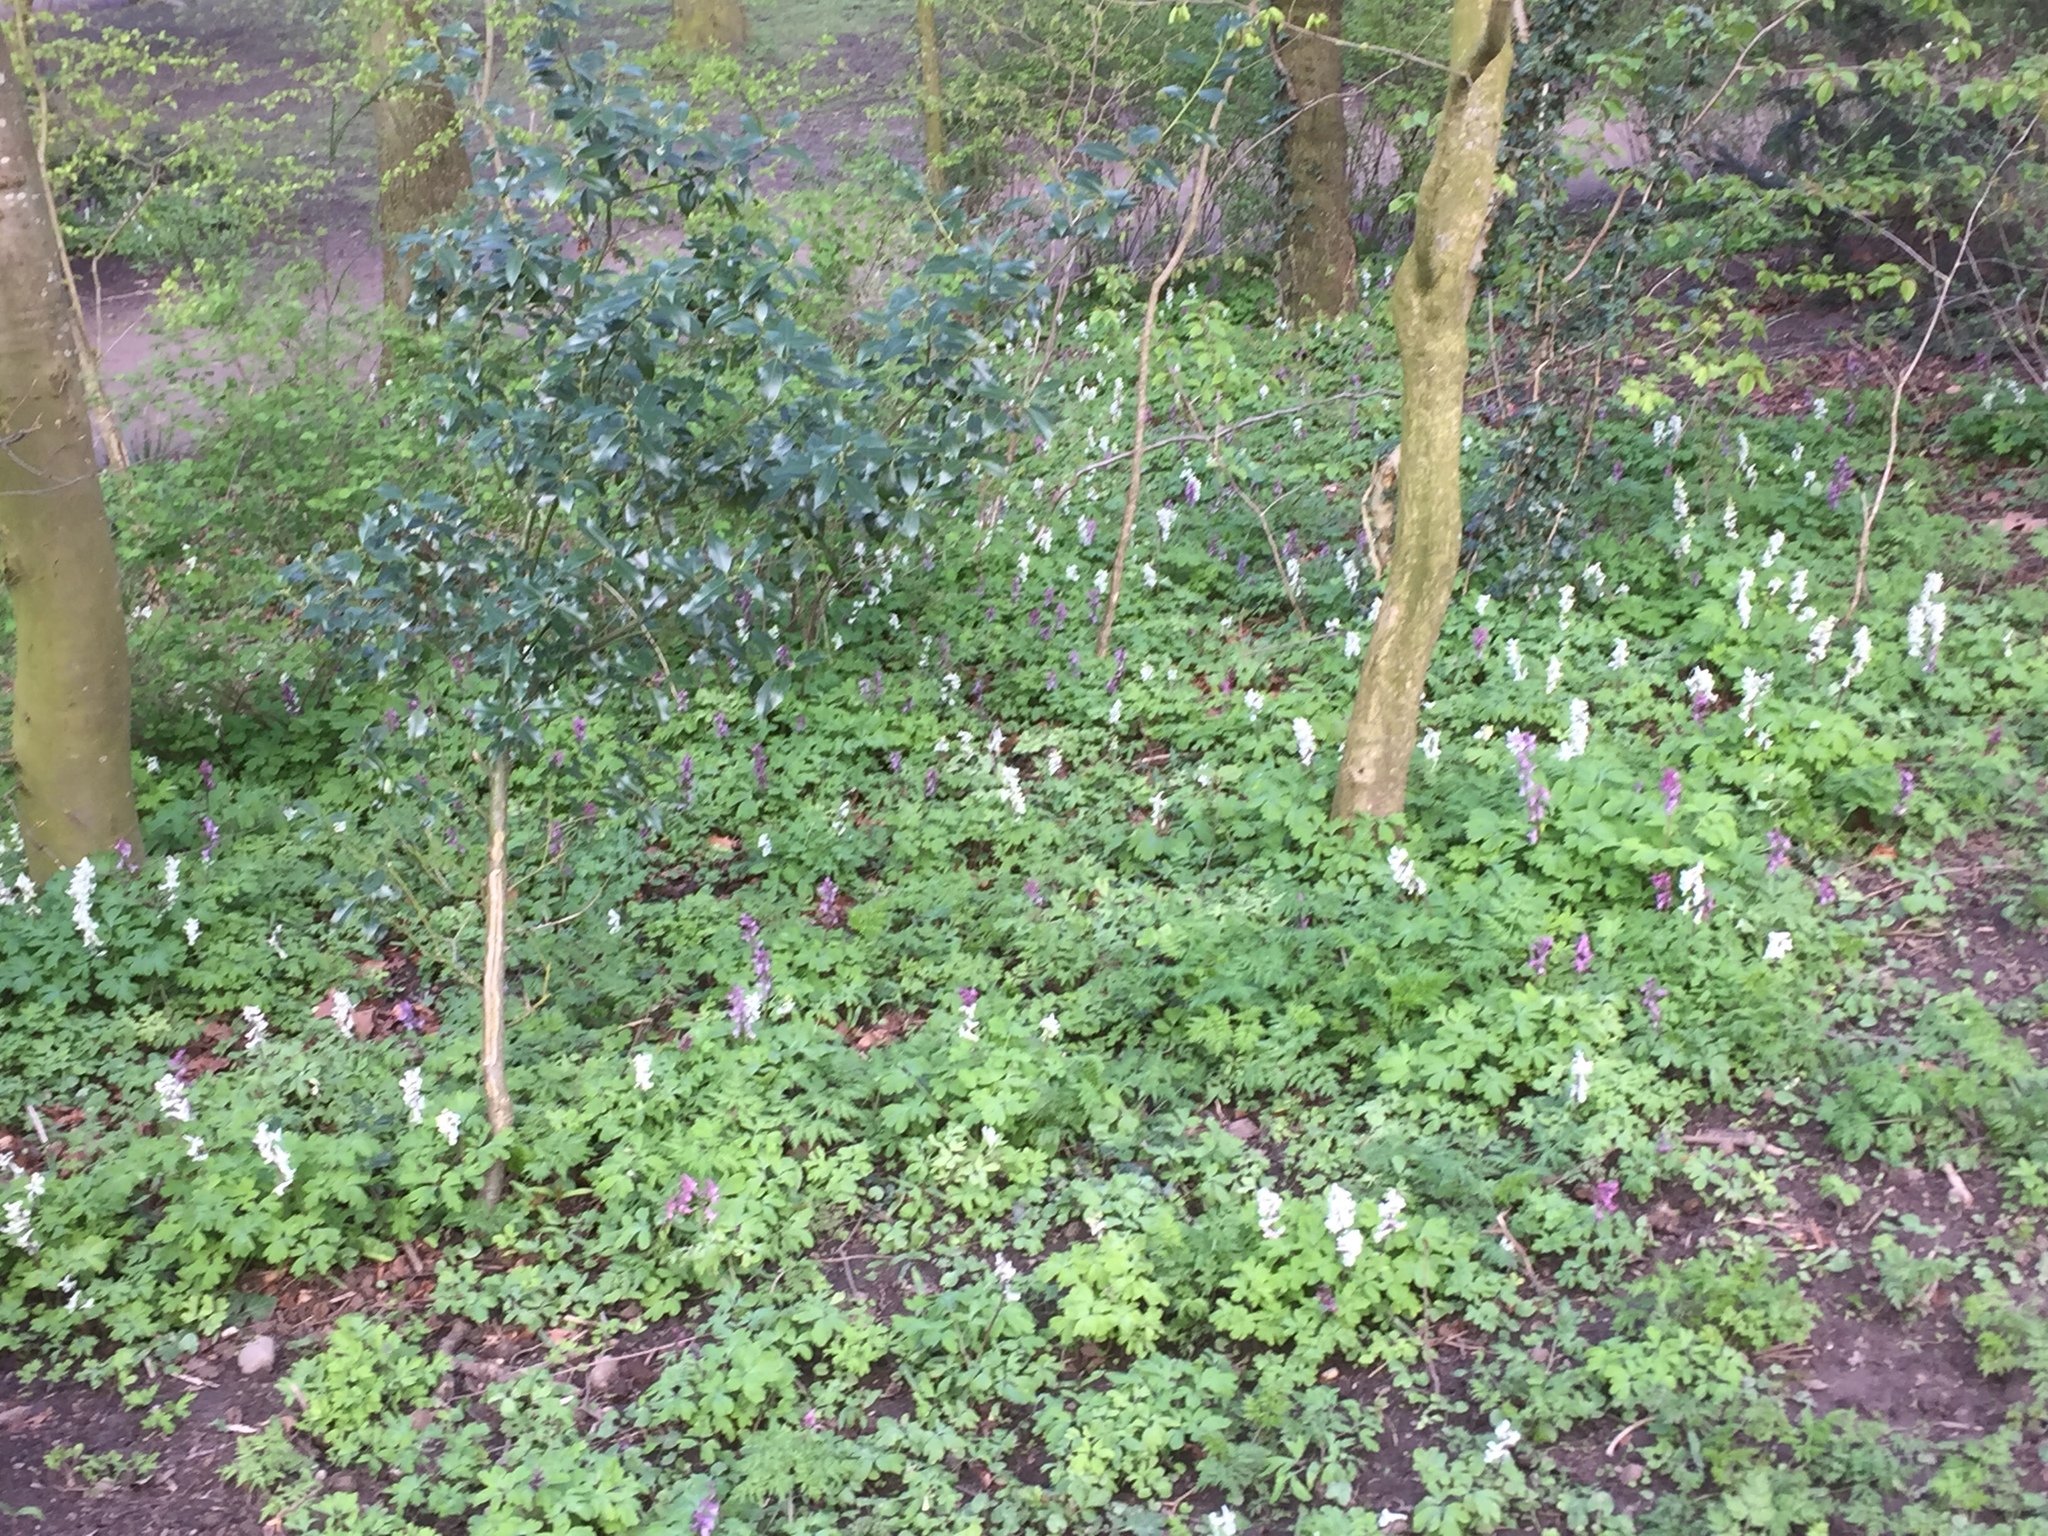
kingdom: Plantae
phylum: Tracheophyta
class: Magnoliopsida
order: Ranunculales
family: Papaveraceae
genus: Corydalis
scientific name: Corydalis cava
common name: Hollowroot
